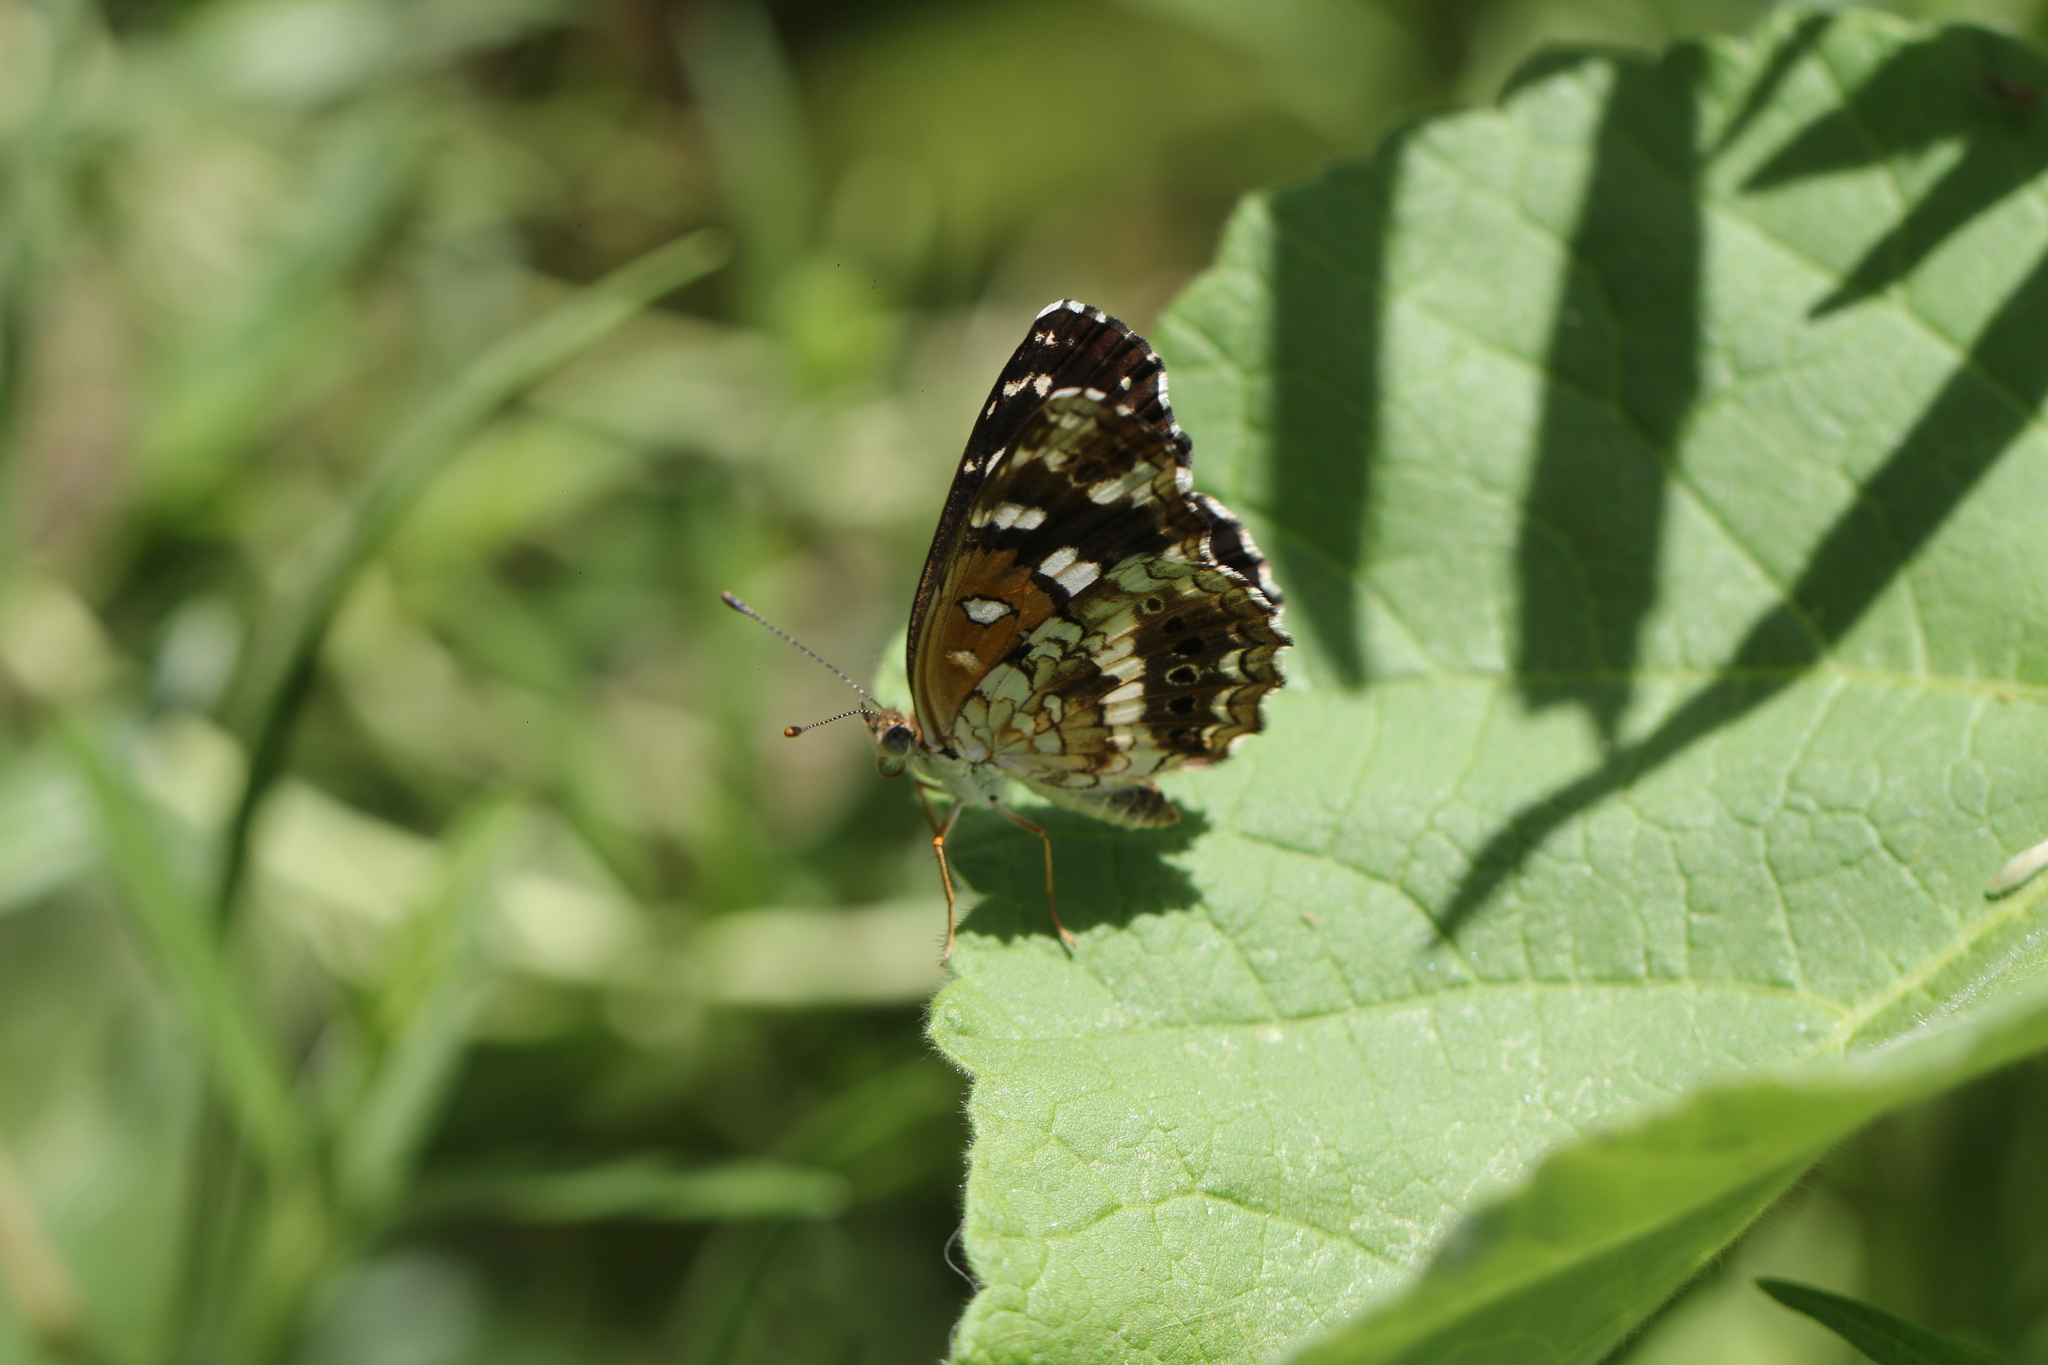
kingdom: Animalia
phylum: Arthropoda
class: Insecta
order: Lepidoptera
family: Nymphalidae
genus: Ortilia
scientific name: Ortilia ithra
